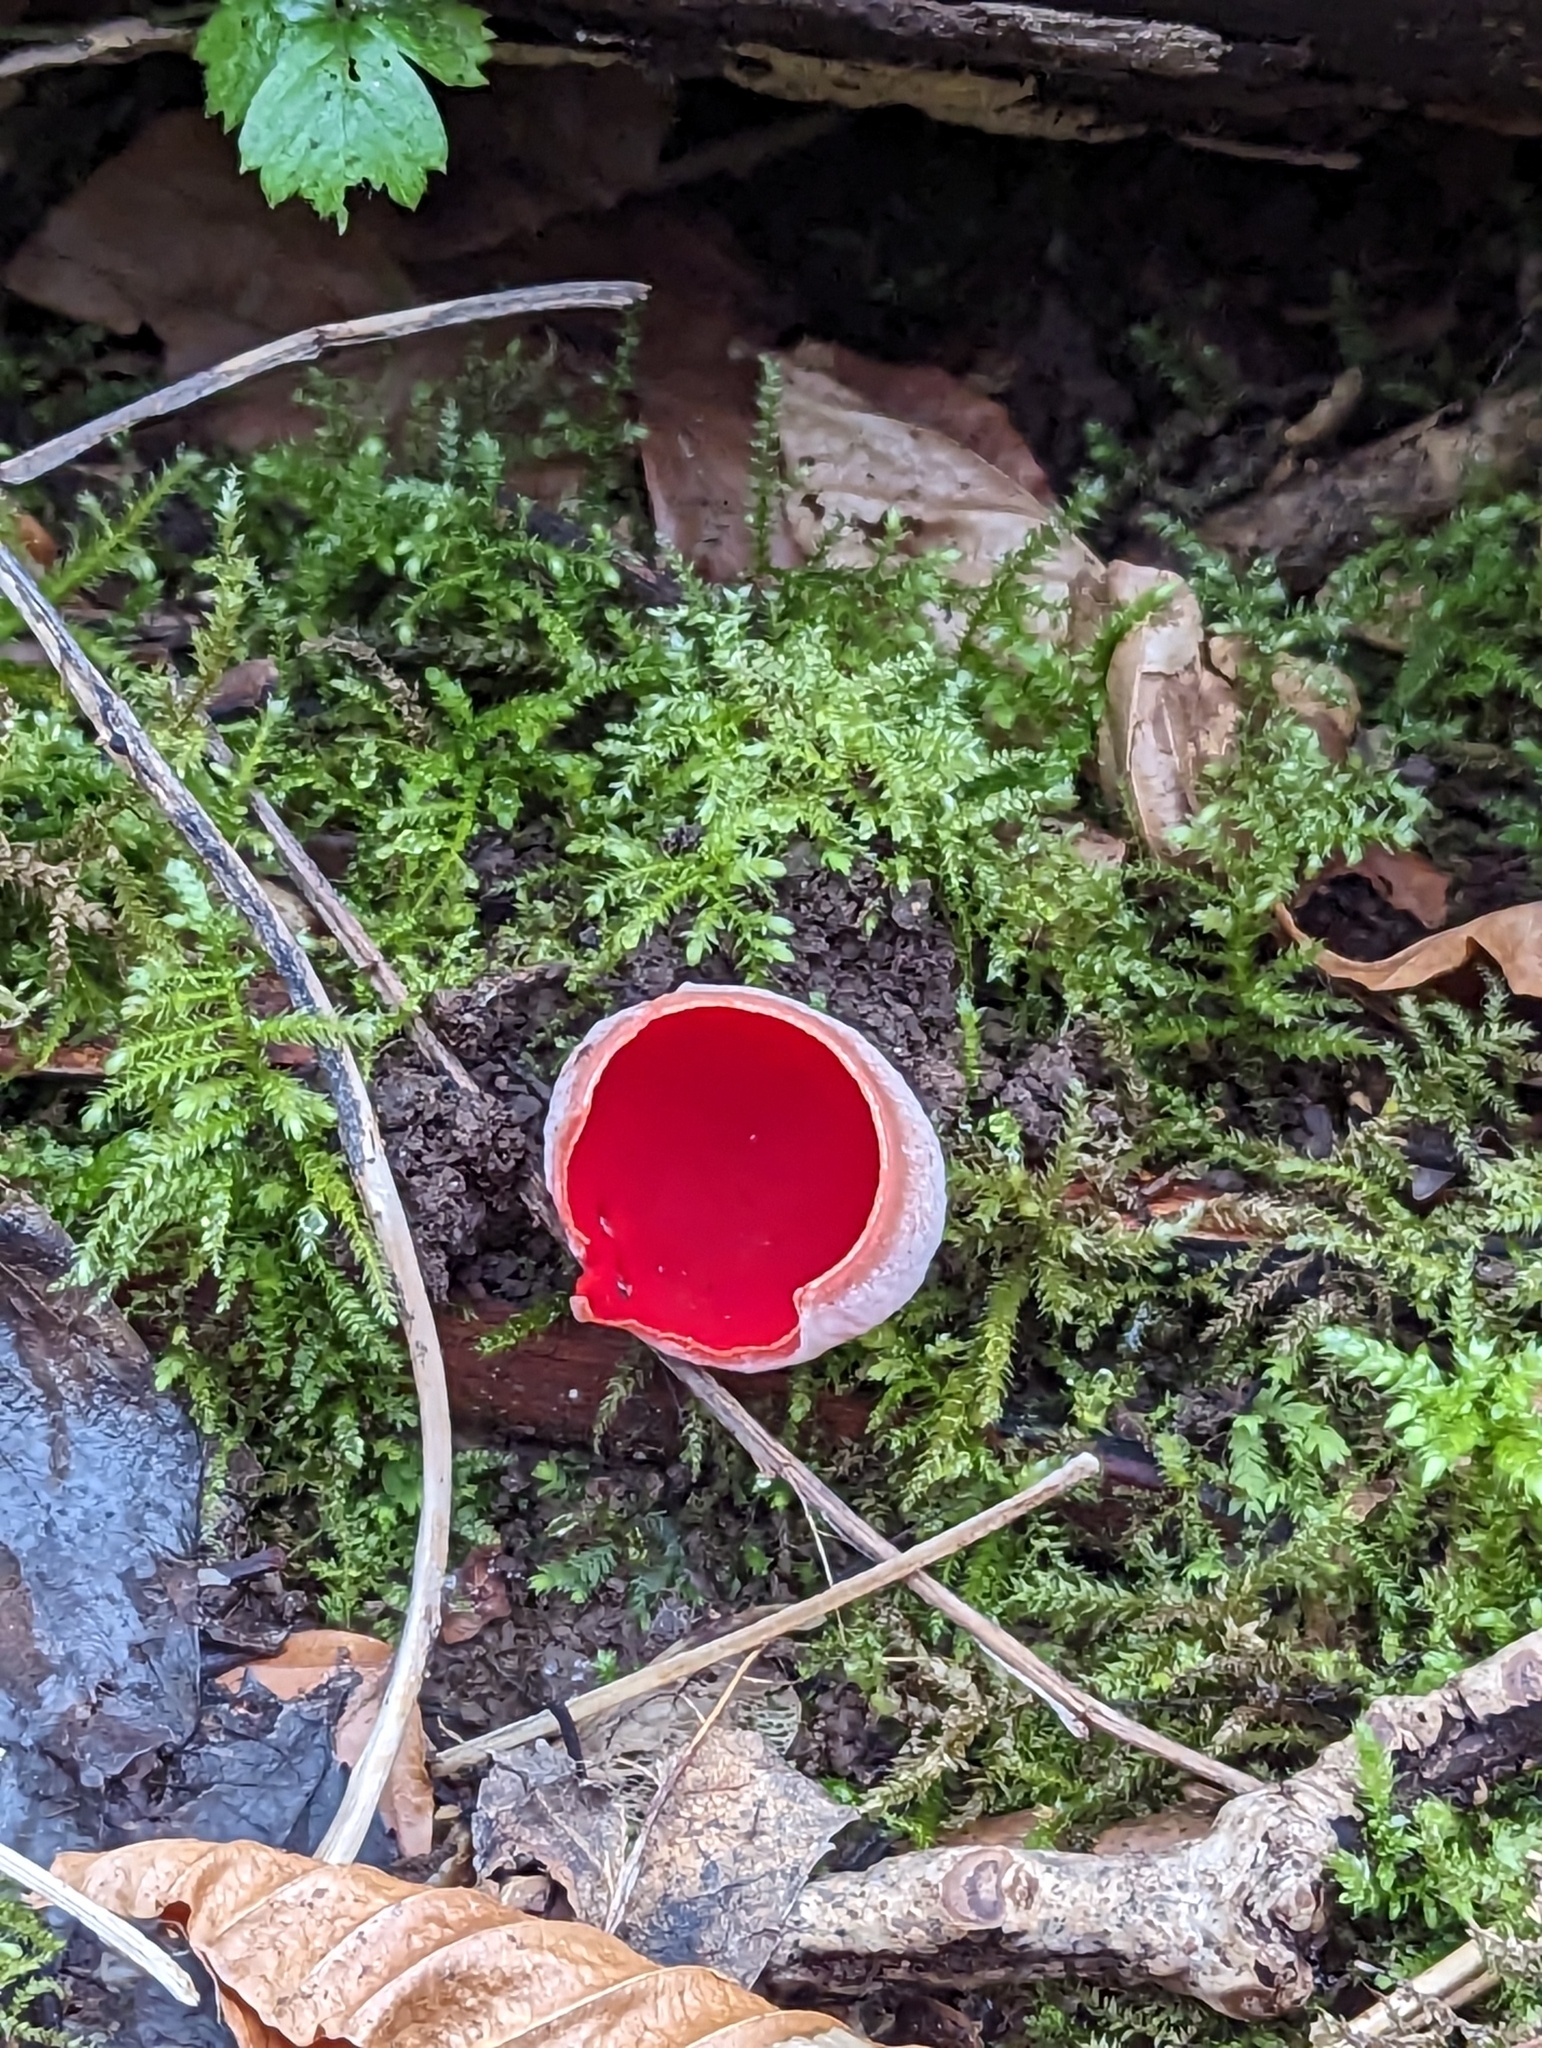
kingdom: Fungi
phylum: Ascomycota
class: Pezizomycetes
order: Pezizales
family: Sarcoscyphaceae
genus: Sarcoscypha
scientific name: Sarcoscypha
